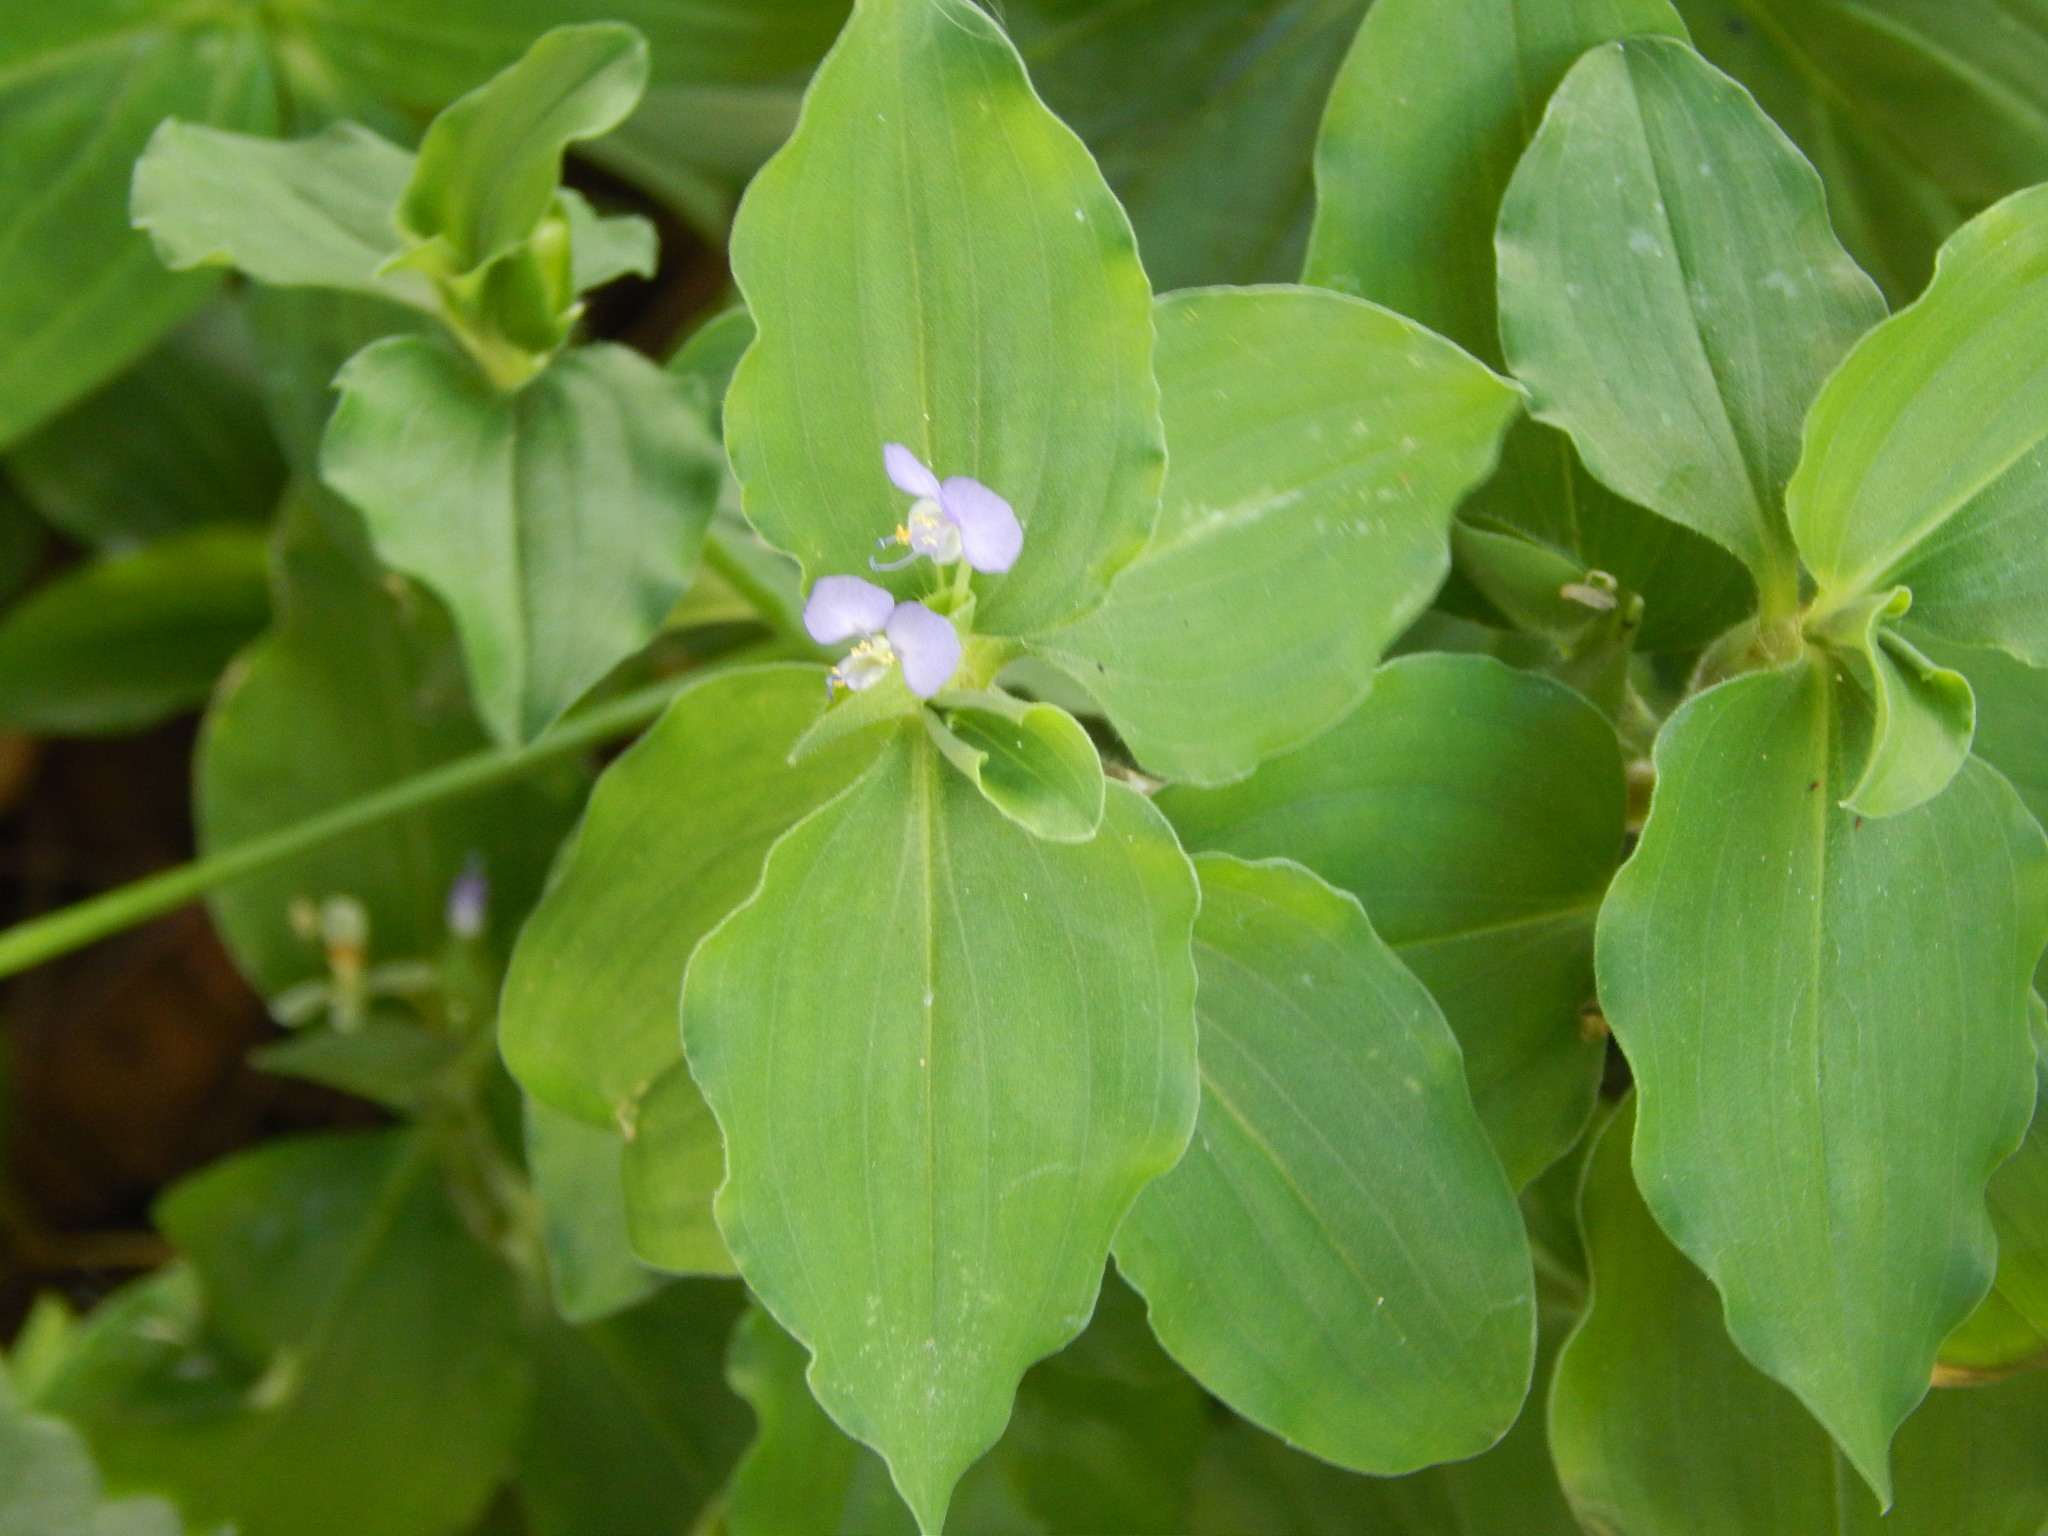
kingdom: Plantae
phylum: Tracheophyta
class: Liliopsida
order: Commelinales
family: Commelinaceae
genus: Commelina
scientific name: Commelina benghalensis
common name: Jio
